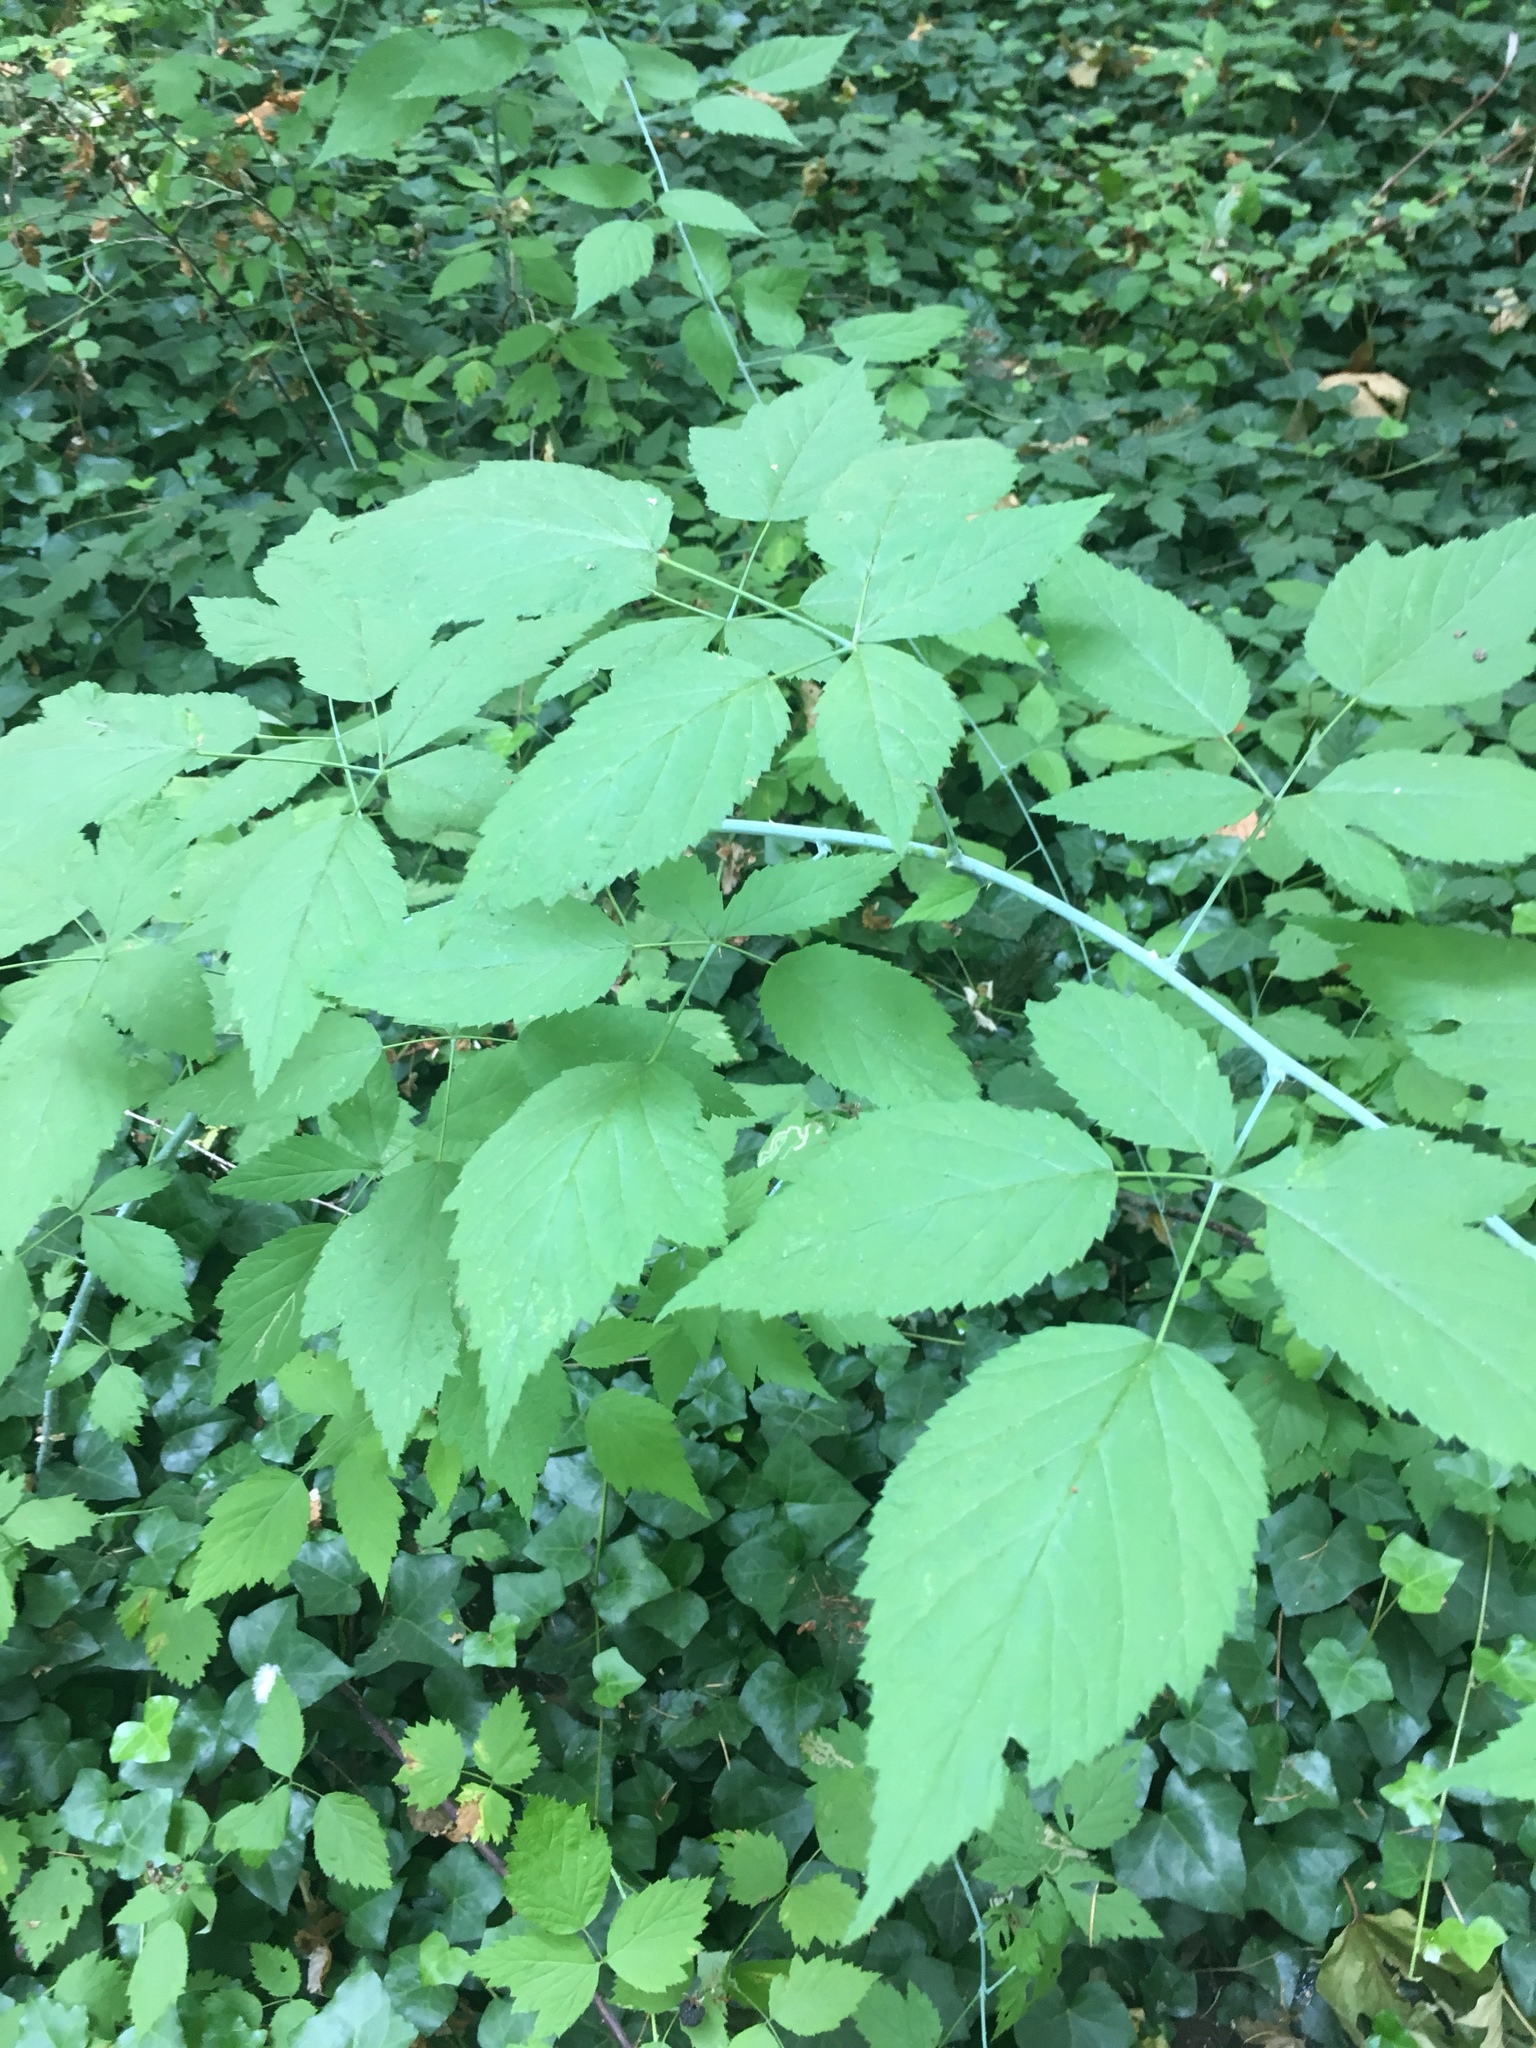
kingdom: Plantae
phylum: Tracheophyta
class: Magnoliopsida
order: Rosales
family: Rosaceae
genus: Rubus
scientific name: Rubus ursinus
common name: Pacific blackberry
